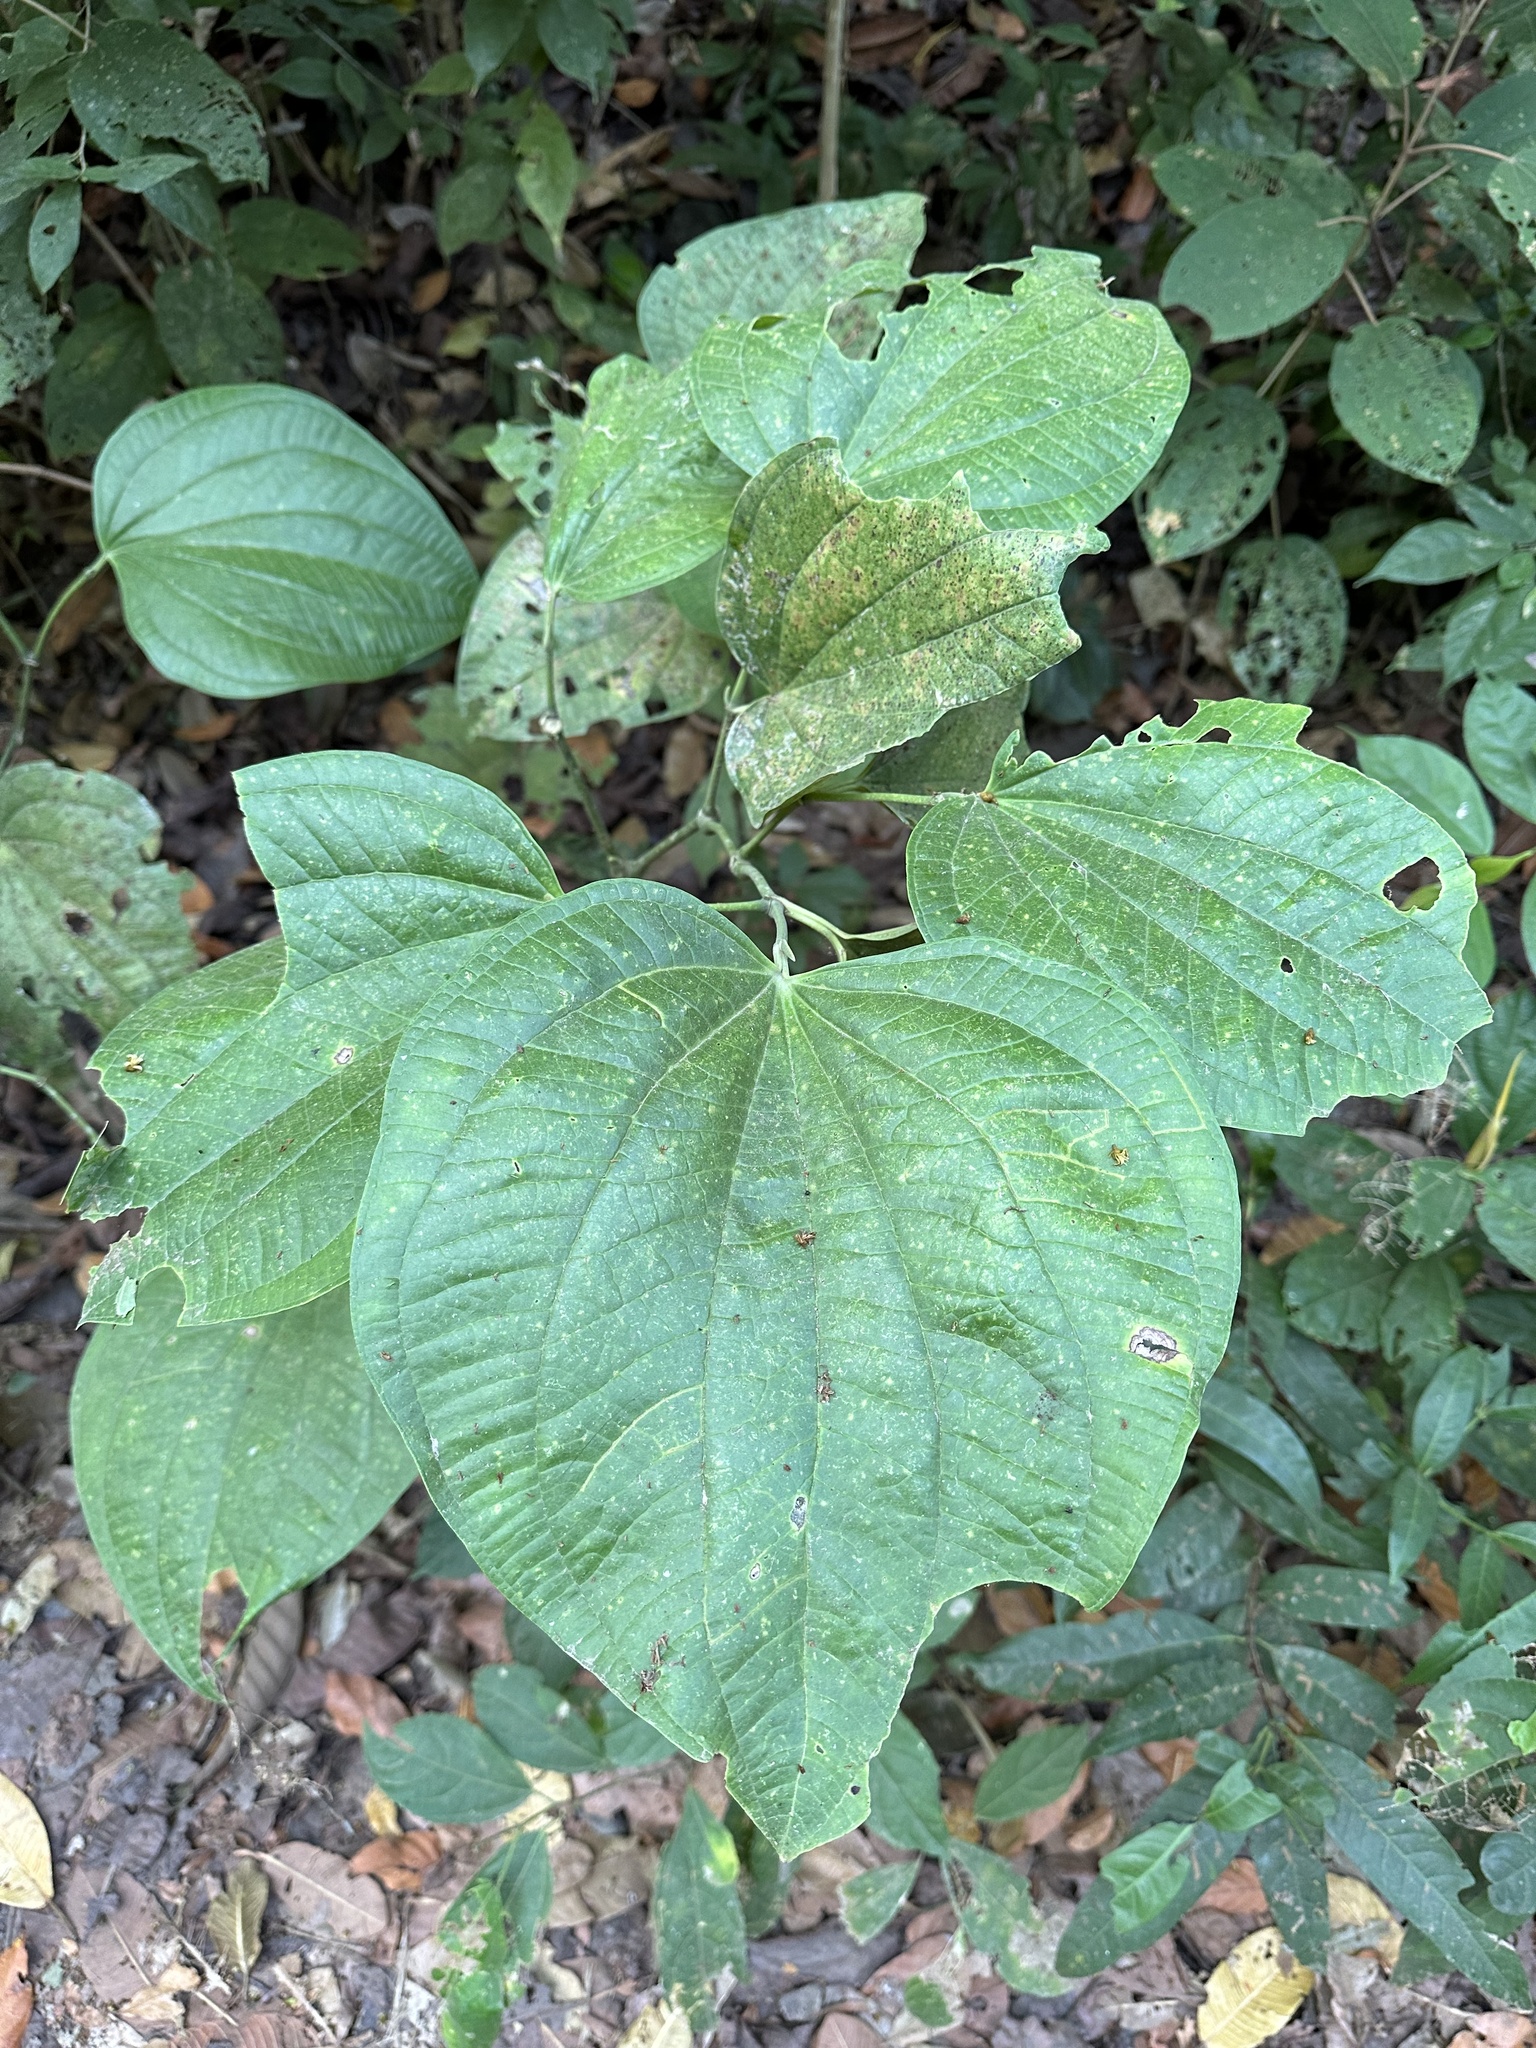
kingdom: Plantae
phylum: Tracheophyta
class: Magnoliopsida
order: Piperales
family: Piperaceae
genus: Piper
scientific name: Piper reticulatum
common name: Wild cane
